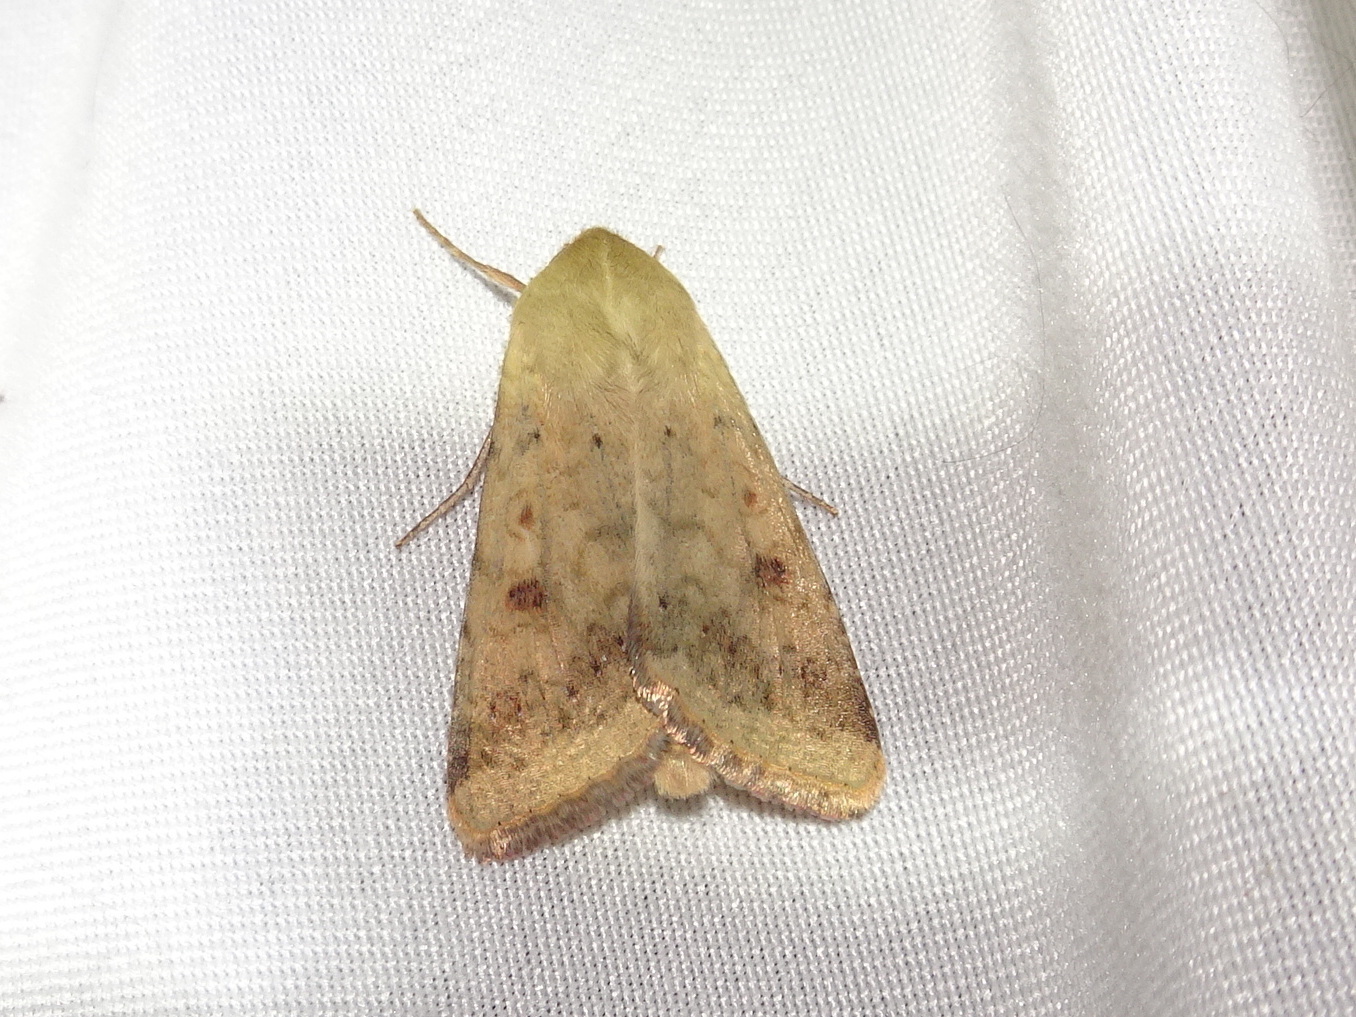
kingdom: Animalia
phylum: Arthropoda
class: Insecta
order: Lepidoptera
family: Noctuidae
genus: Helicoverpa
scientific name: Helicoverpa zea
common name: Bollworm
